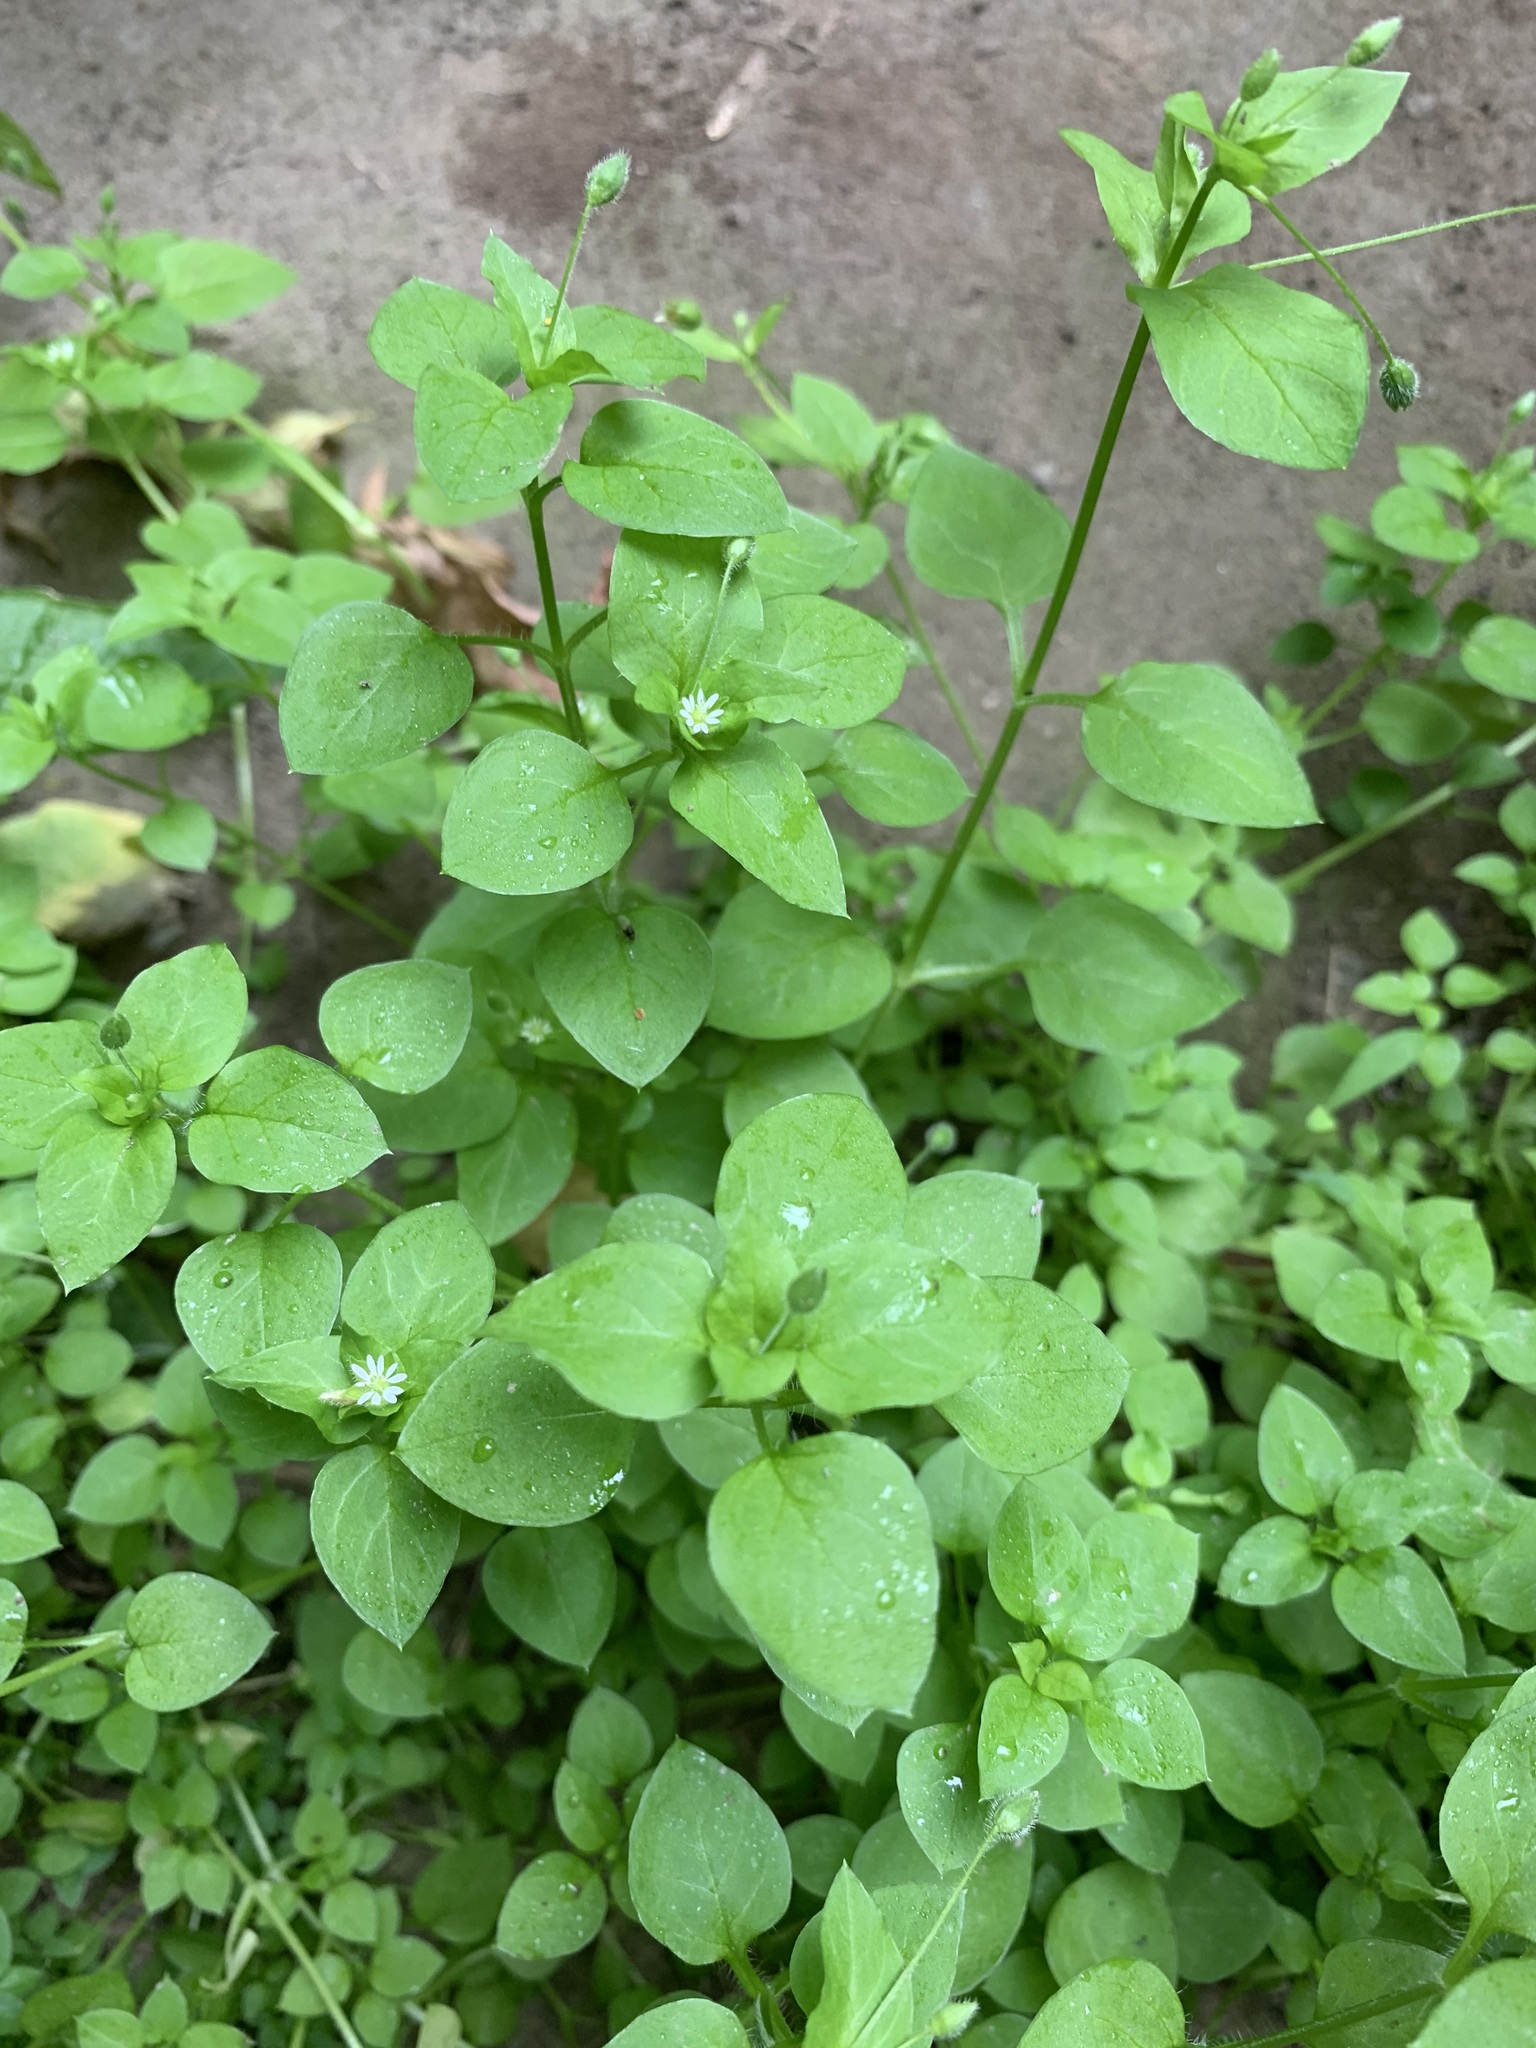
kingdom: Plantae
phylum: Tracheophyta
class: Magnoliopsida
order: Caryophyllales
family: Caryophyllaceae
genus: Stellaria
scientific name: Stellaria media
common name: Common chickweed
